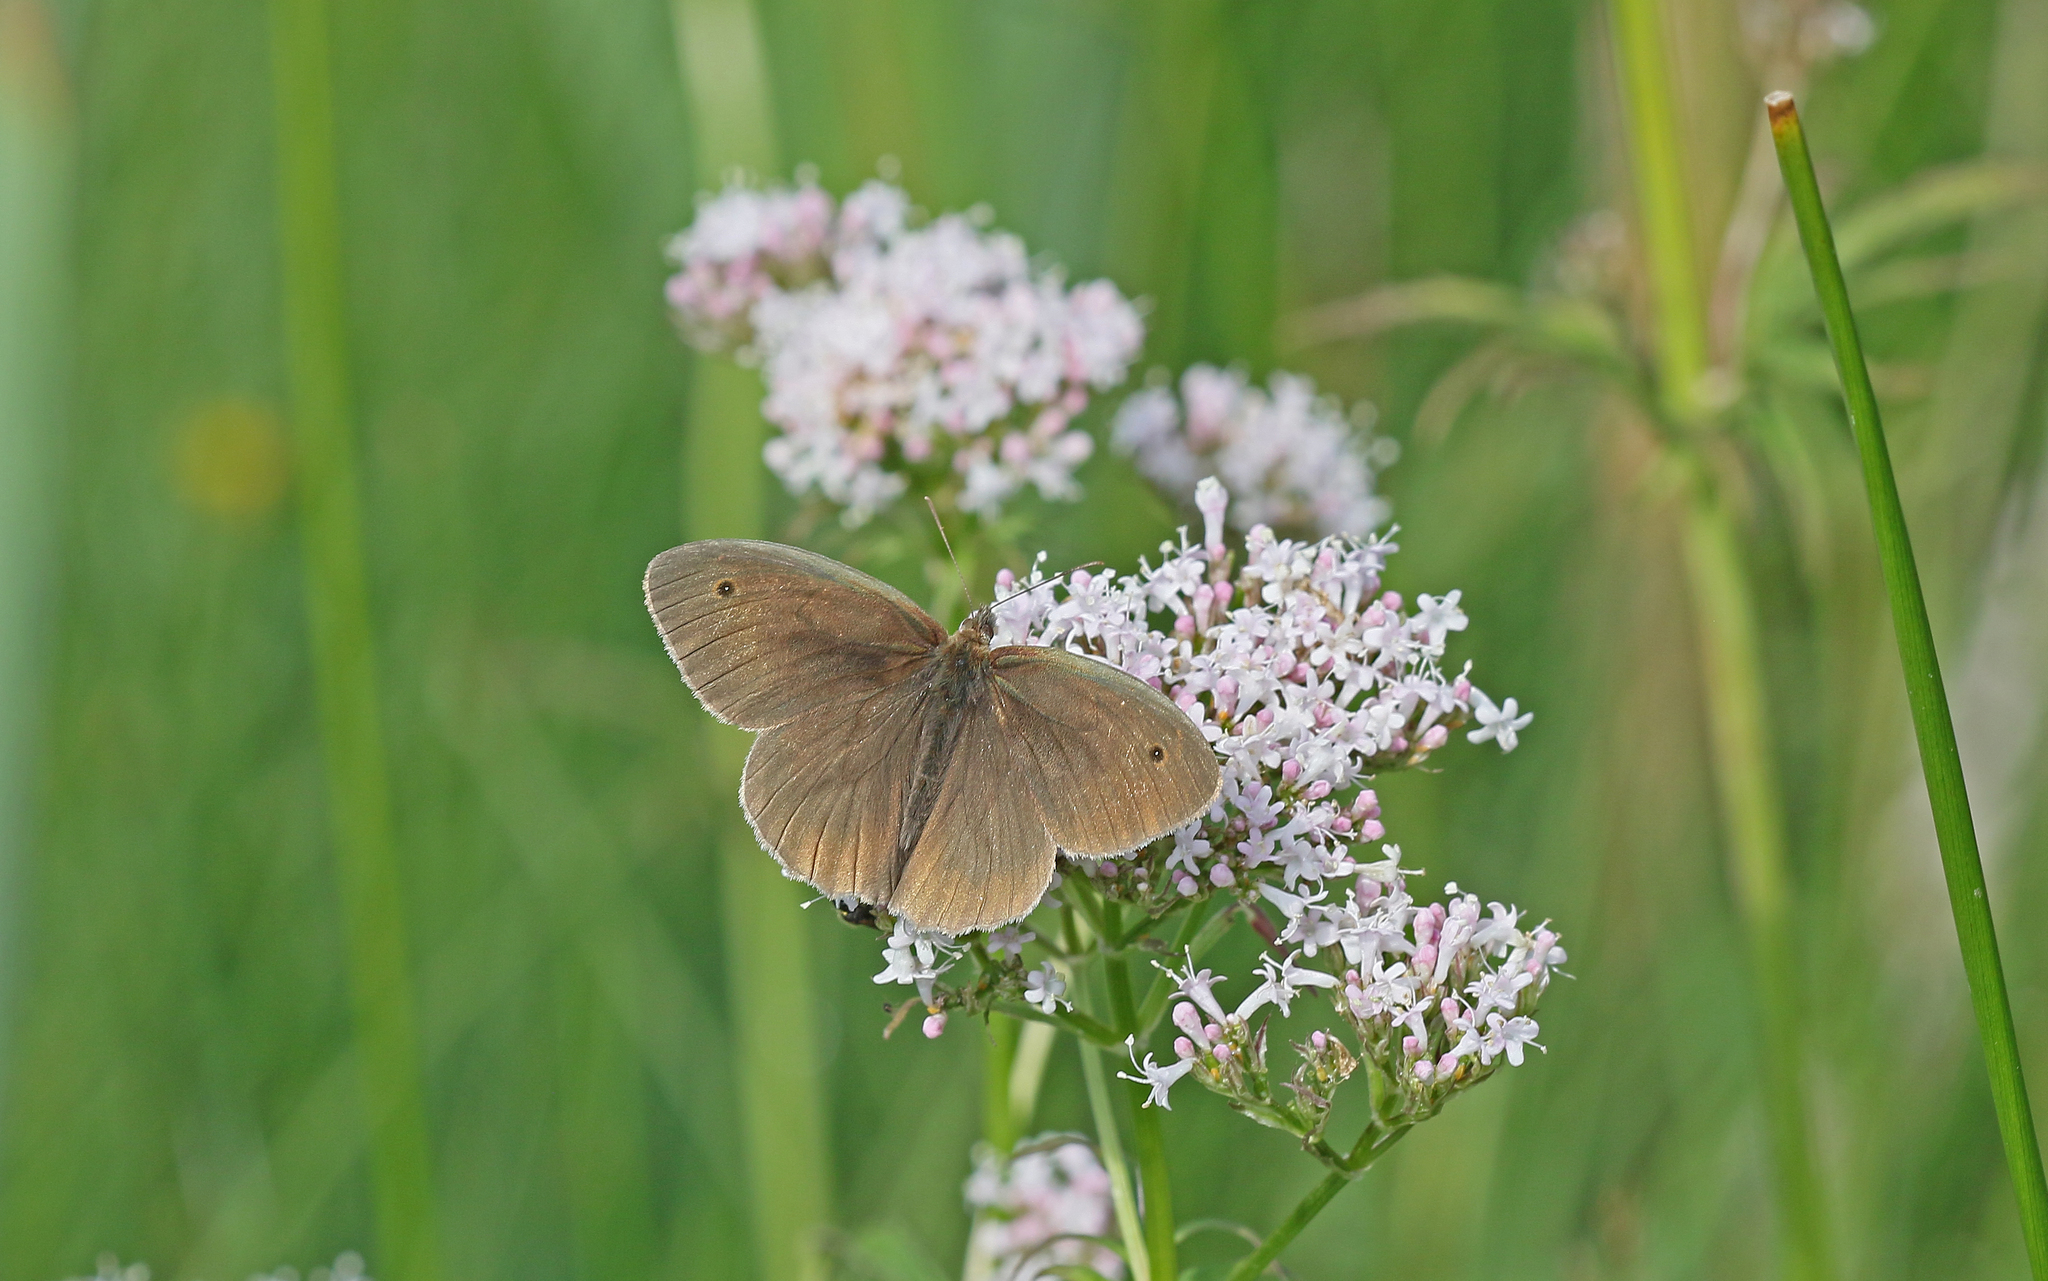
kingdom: Animalia
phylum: Arthropoda
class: Insecta
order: Lepidoptera
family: Nymphalidae
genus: Maniola
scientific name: Maniola jurtina
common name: Meadow brown
